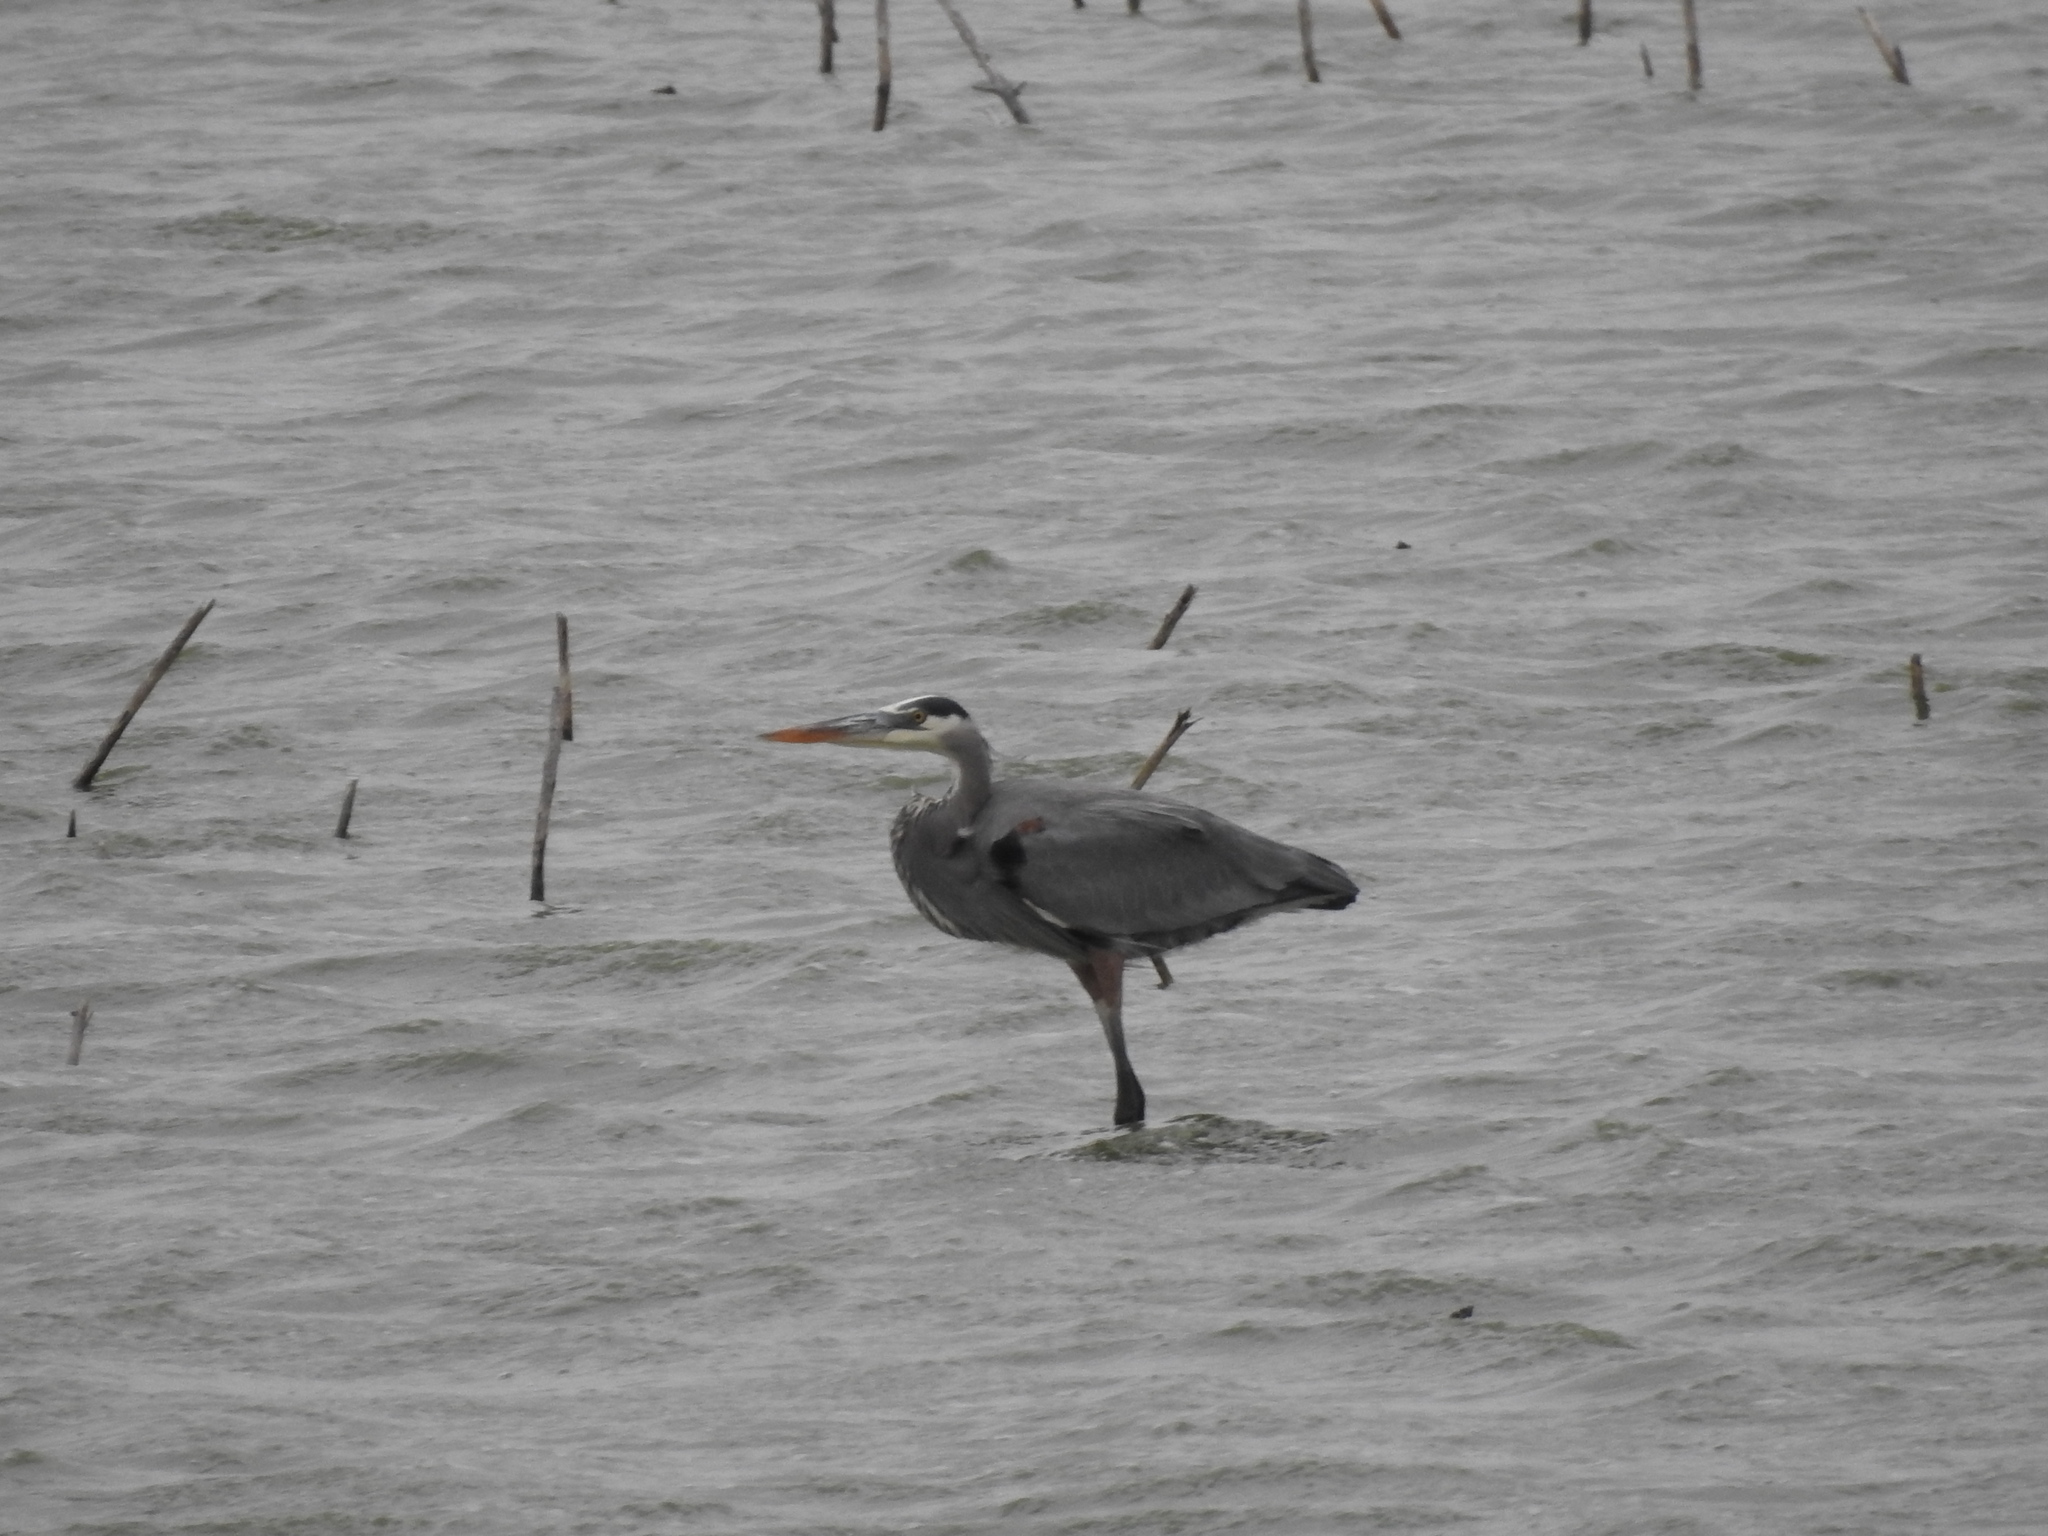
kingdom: Animalia
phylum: Chordata
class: Aves
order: Pelecaniformes
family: Ardeidae
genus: Ardea
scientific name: Ardea herodias
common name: Great blue heron
